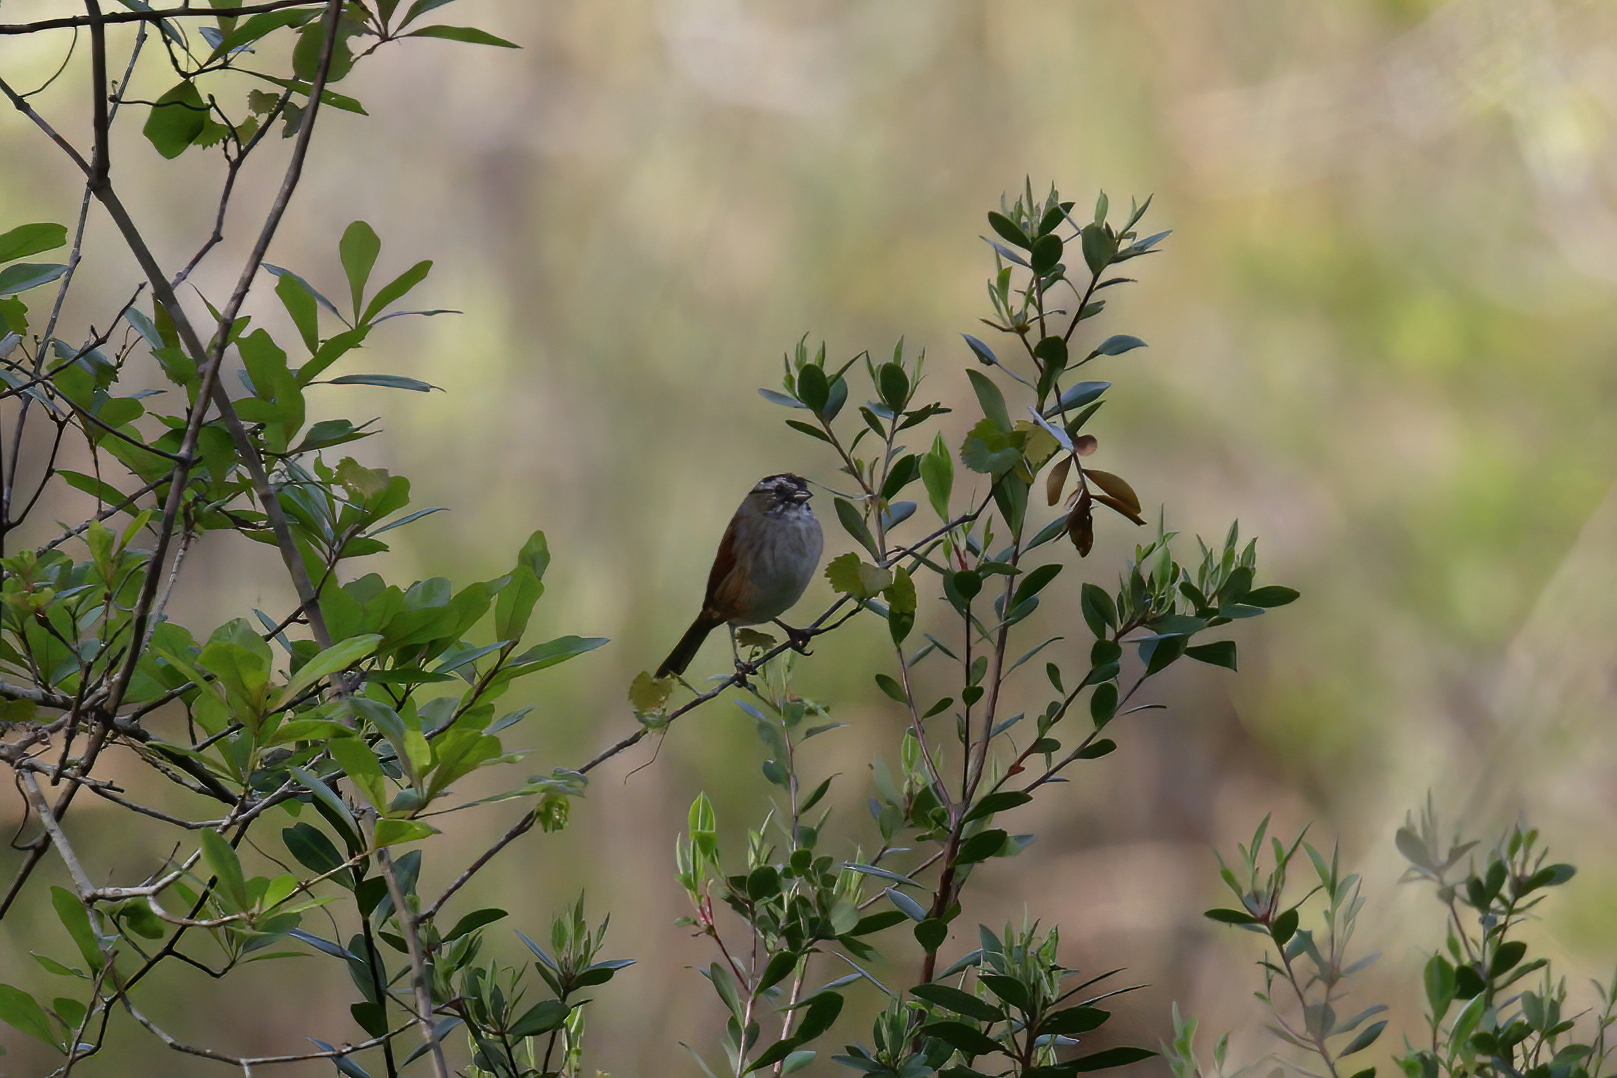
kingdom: Animalia
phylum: Chordata
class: Aves
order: Passeriformes
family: Passerellidae
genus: Melospiza
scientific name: Melospiza georgiana
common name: Swamp sparrow
